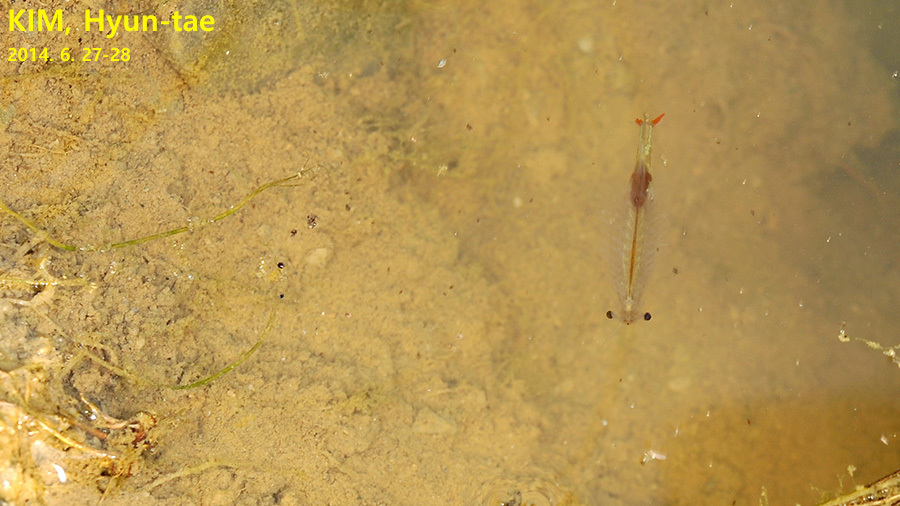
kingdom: Animalia
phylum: Arthropoda
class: Branchiopoda
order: Anostraca
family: Thamnocephalidae
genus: Branchinella
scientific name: Branchinella kugenumaensis
